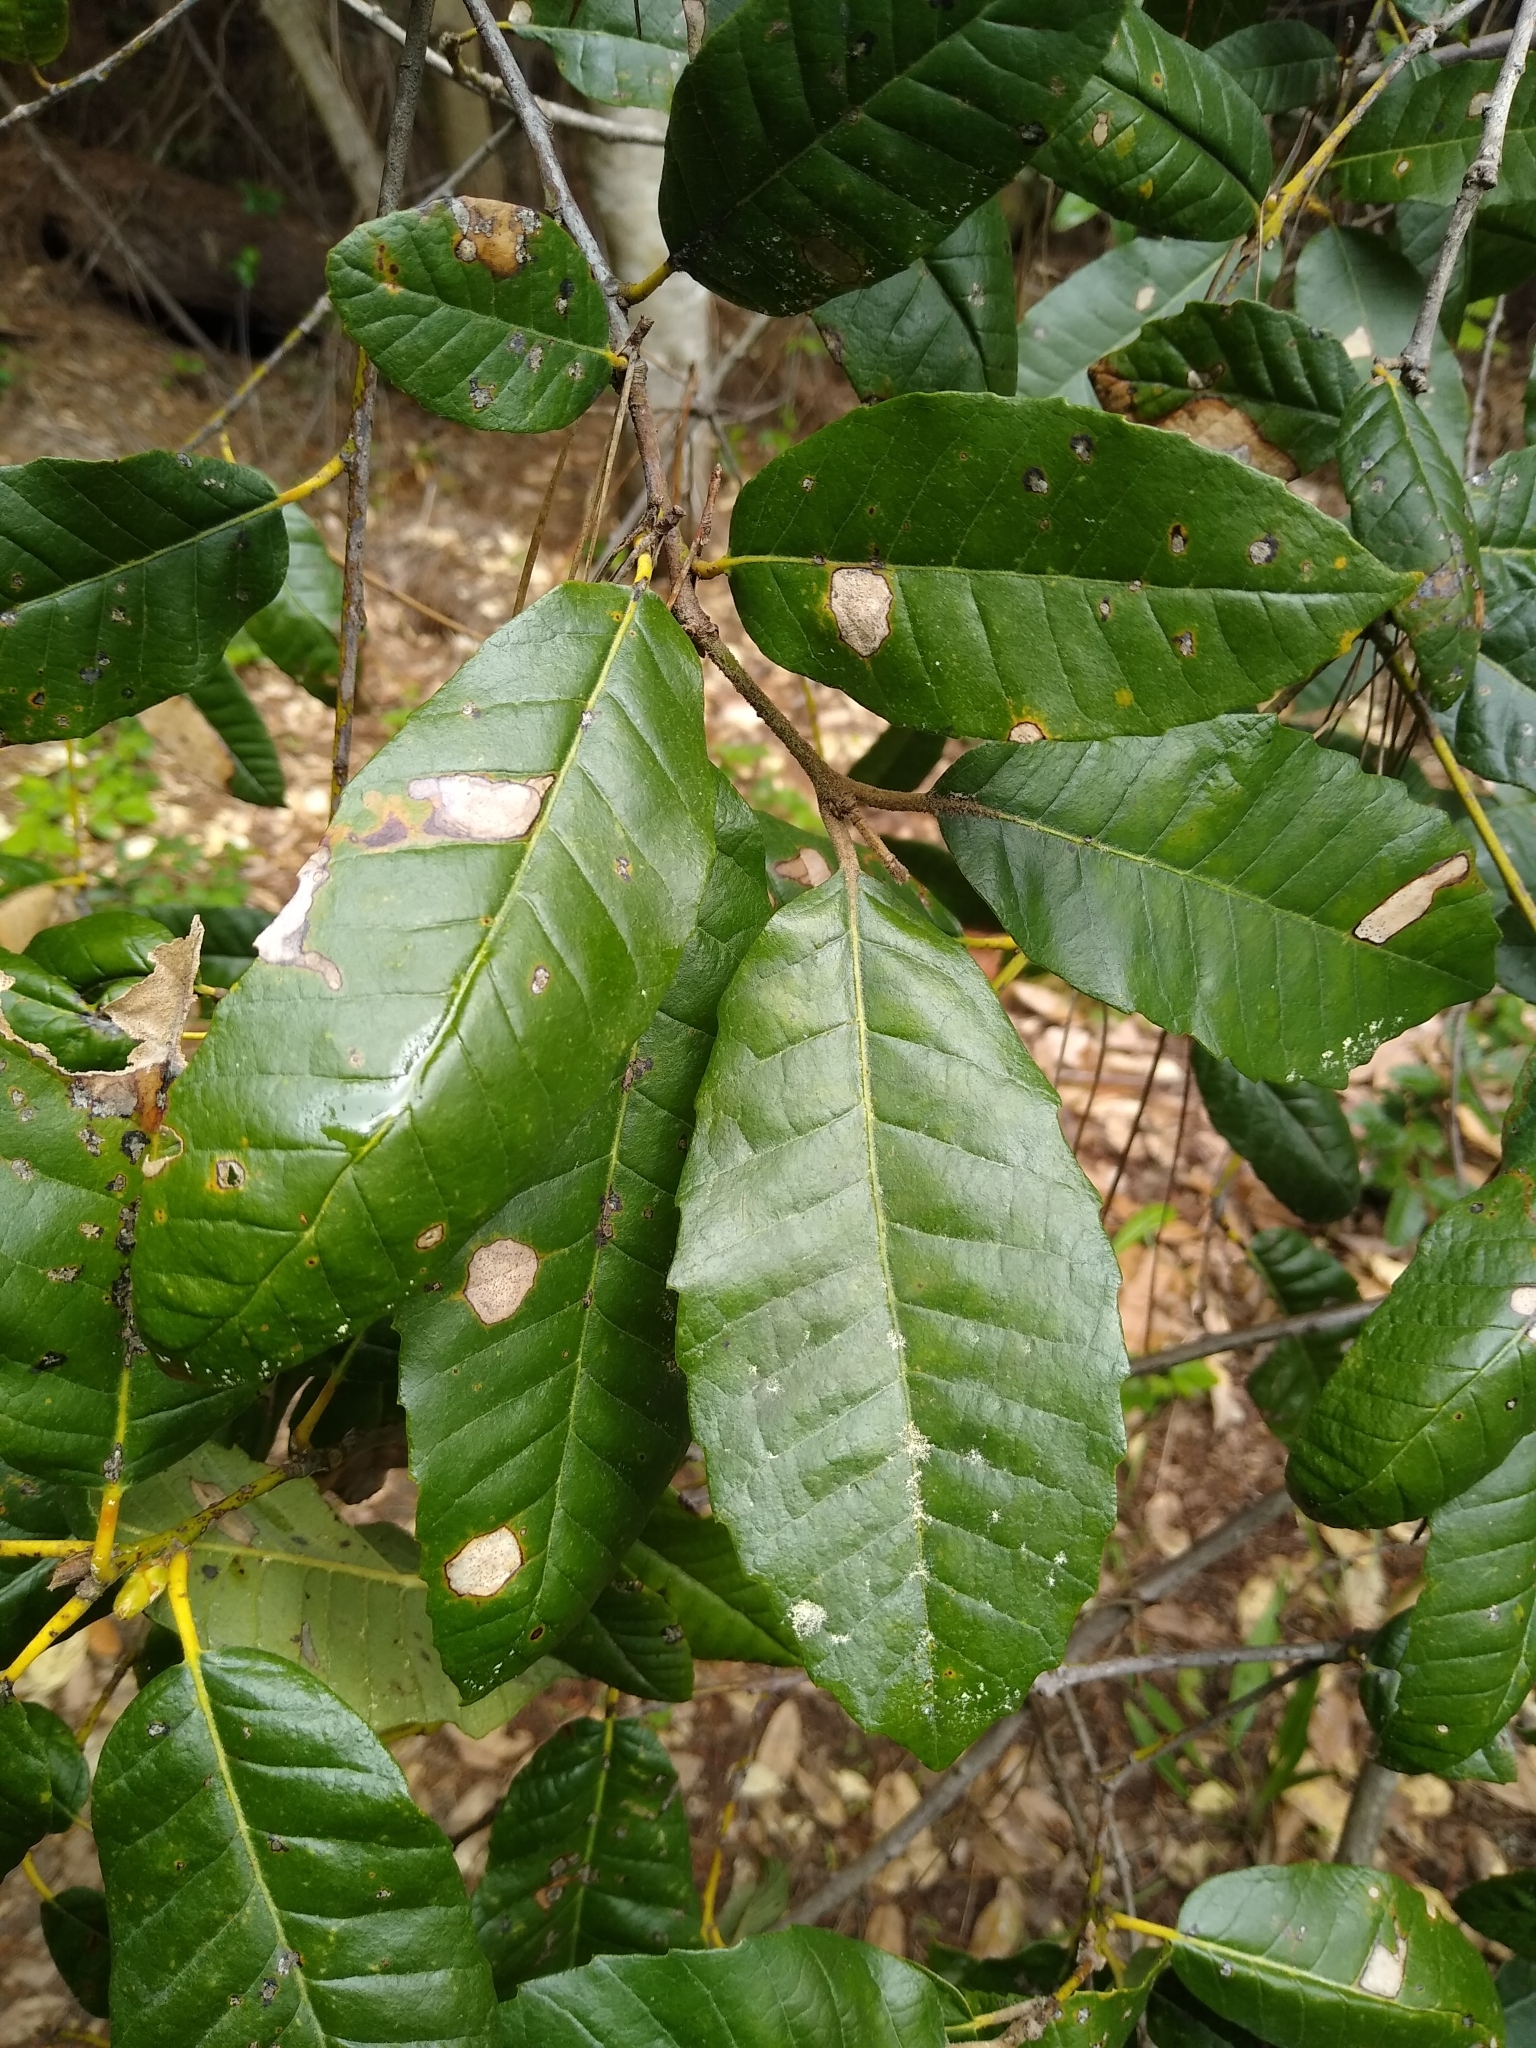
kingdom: Plantae
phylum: Tracheophyta
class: Magnoliopsida
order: Fagales
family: Fagaceae
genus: Notholithocarpus
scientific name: Notholithocarpus densiflorus
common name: Tan bark oak
